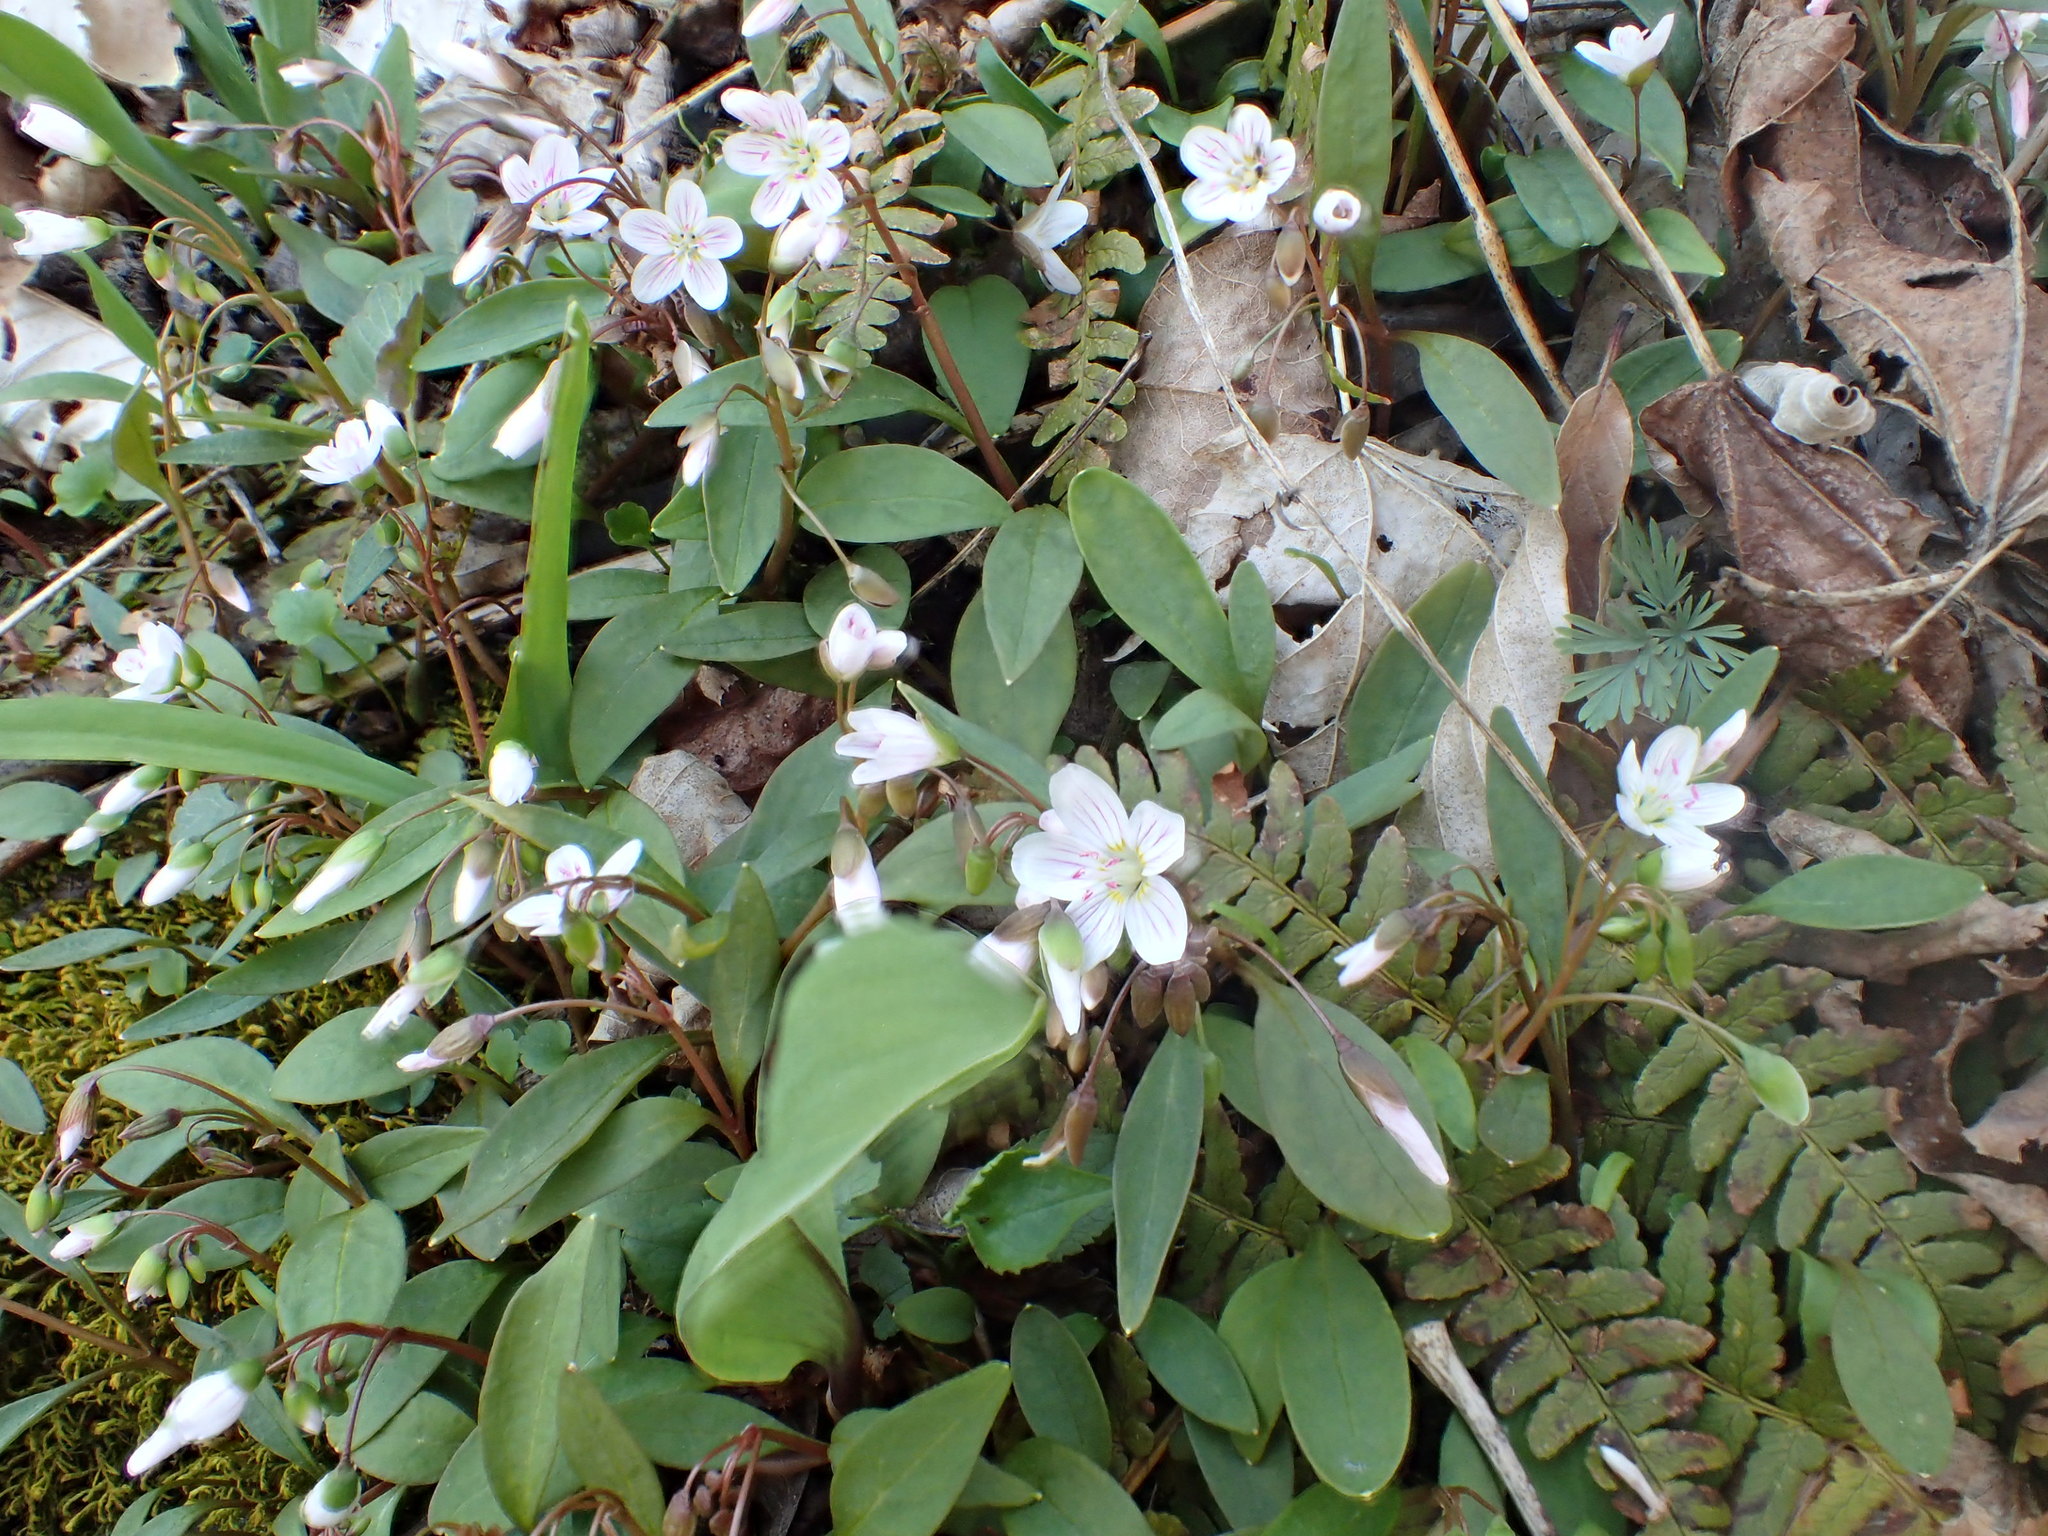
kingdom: Plantae
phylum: Tracheophyta
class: Magnoliopsida
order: Caryophyllales
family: Montiaceae
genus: Claytonia
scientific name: Claytonia caroliniana
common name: Carolina spring beauty
